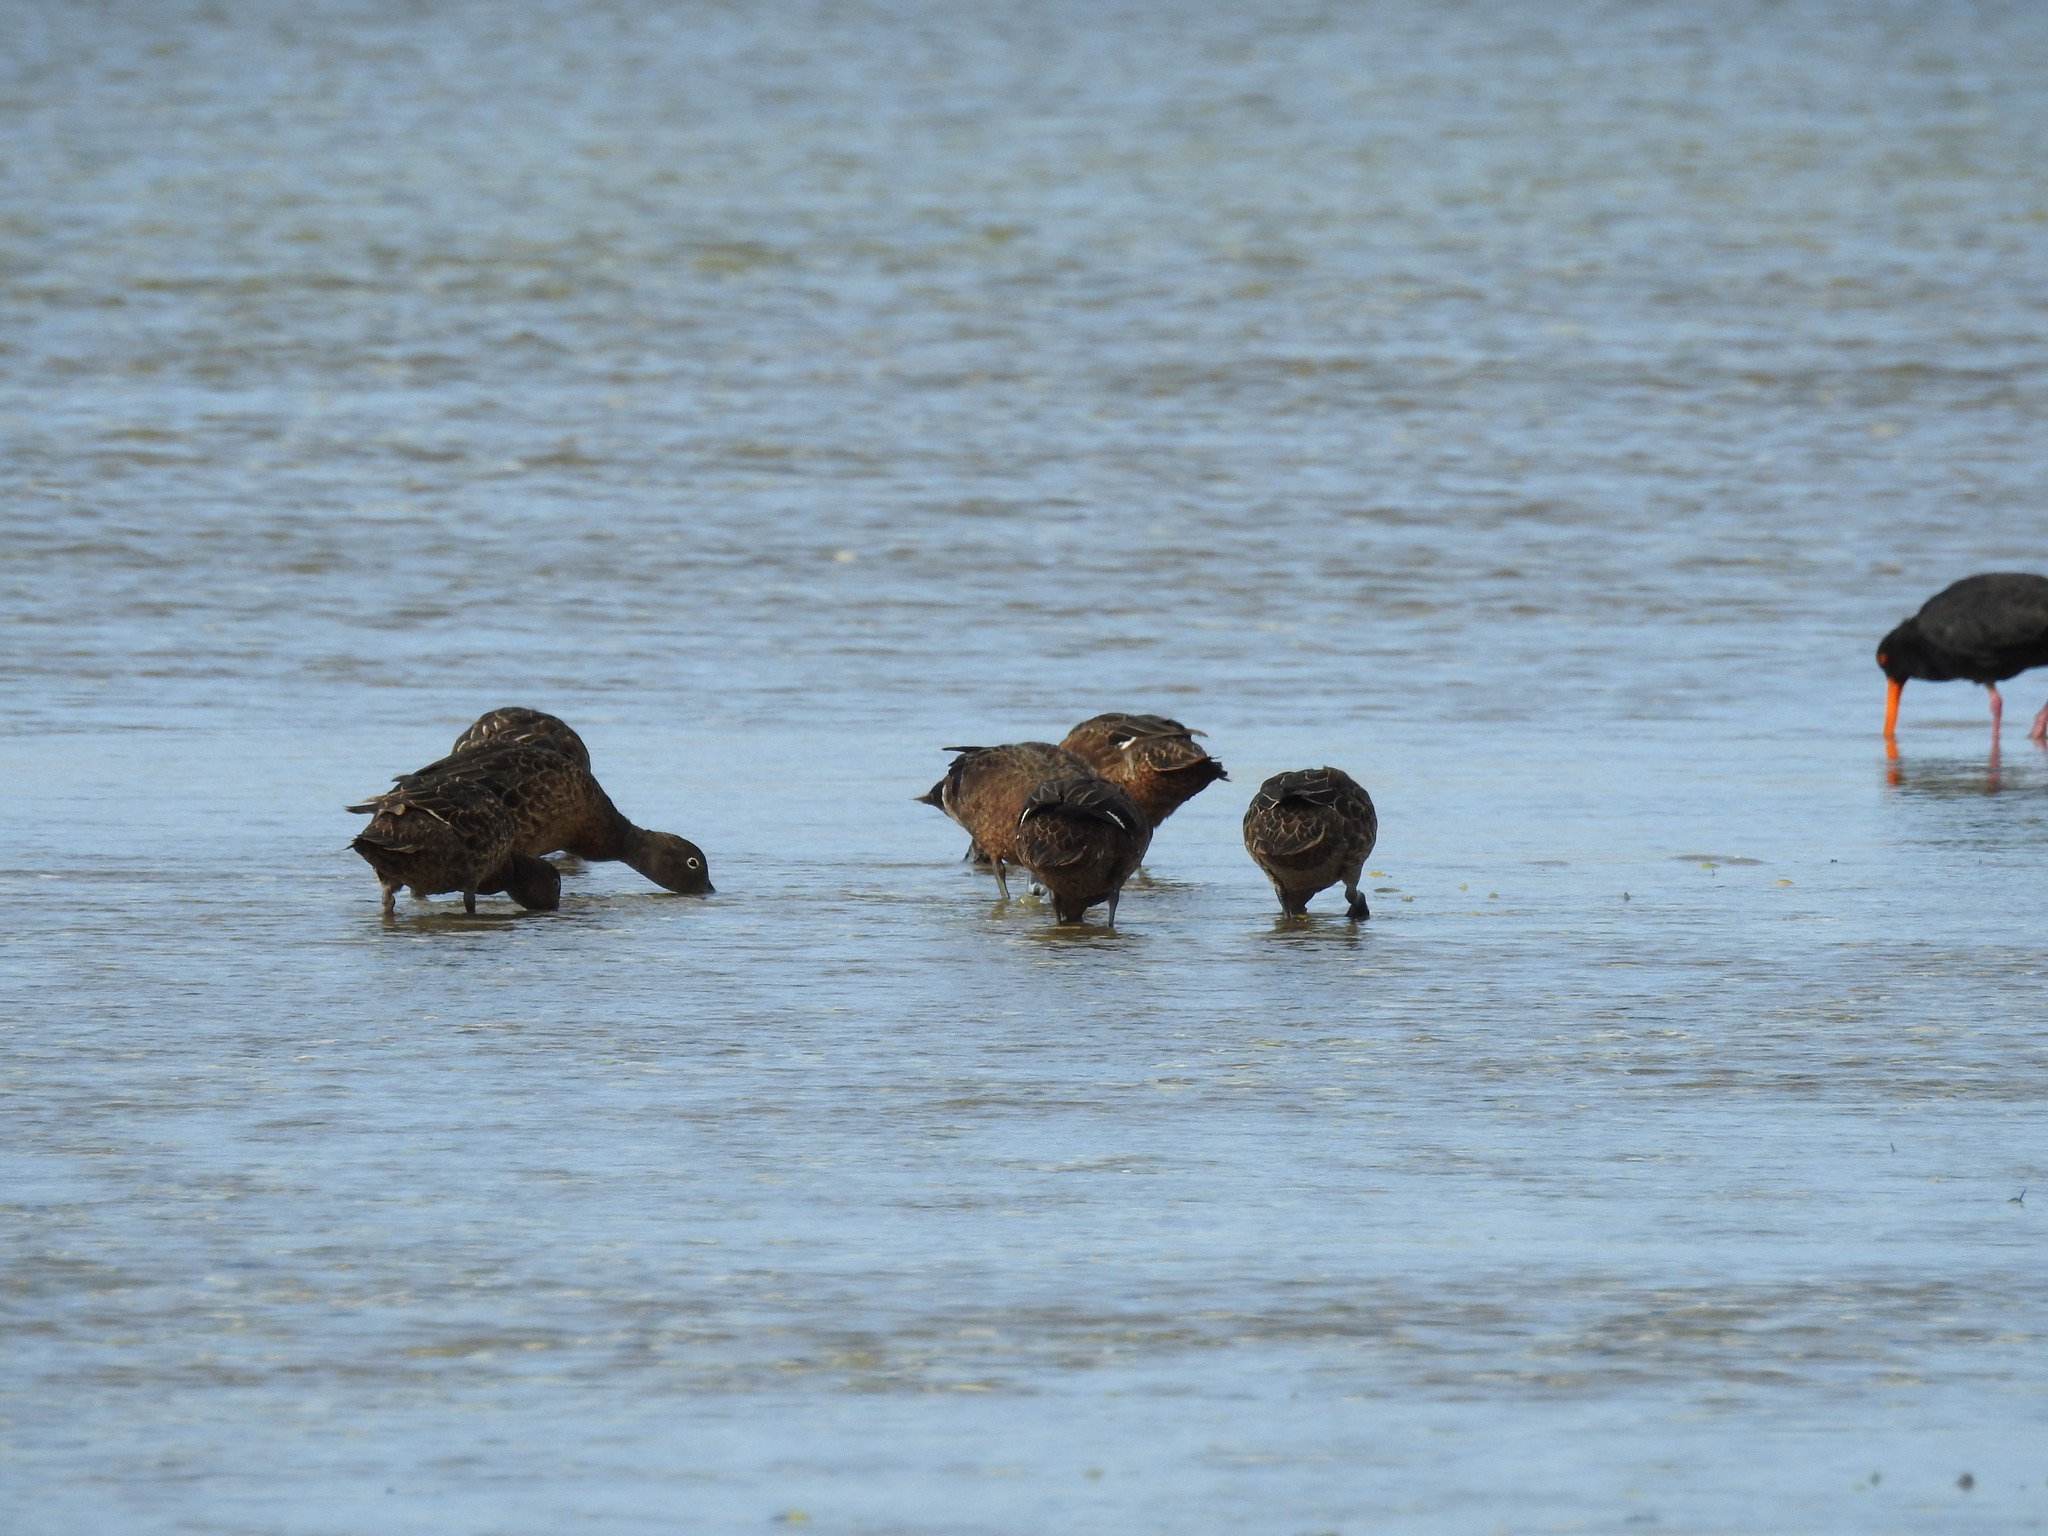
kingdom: Animalia
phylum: Chordata
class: Aves
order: Anseriformes
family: Anatidae
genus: Anas
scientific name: Anas chlorotis
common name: Brown teal
